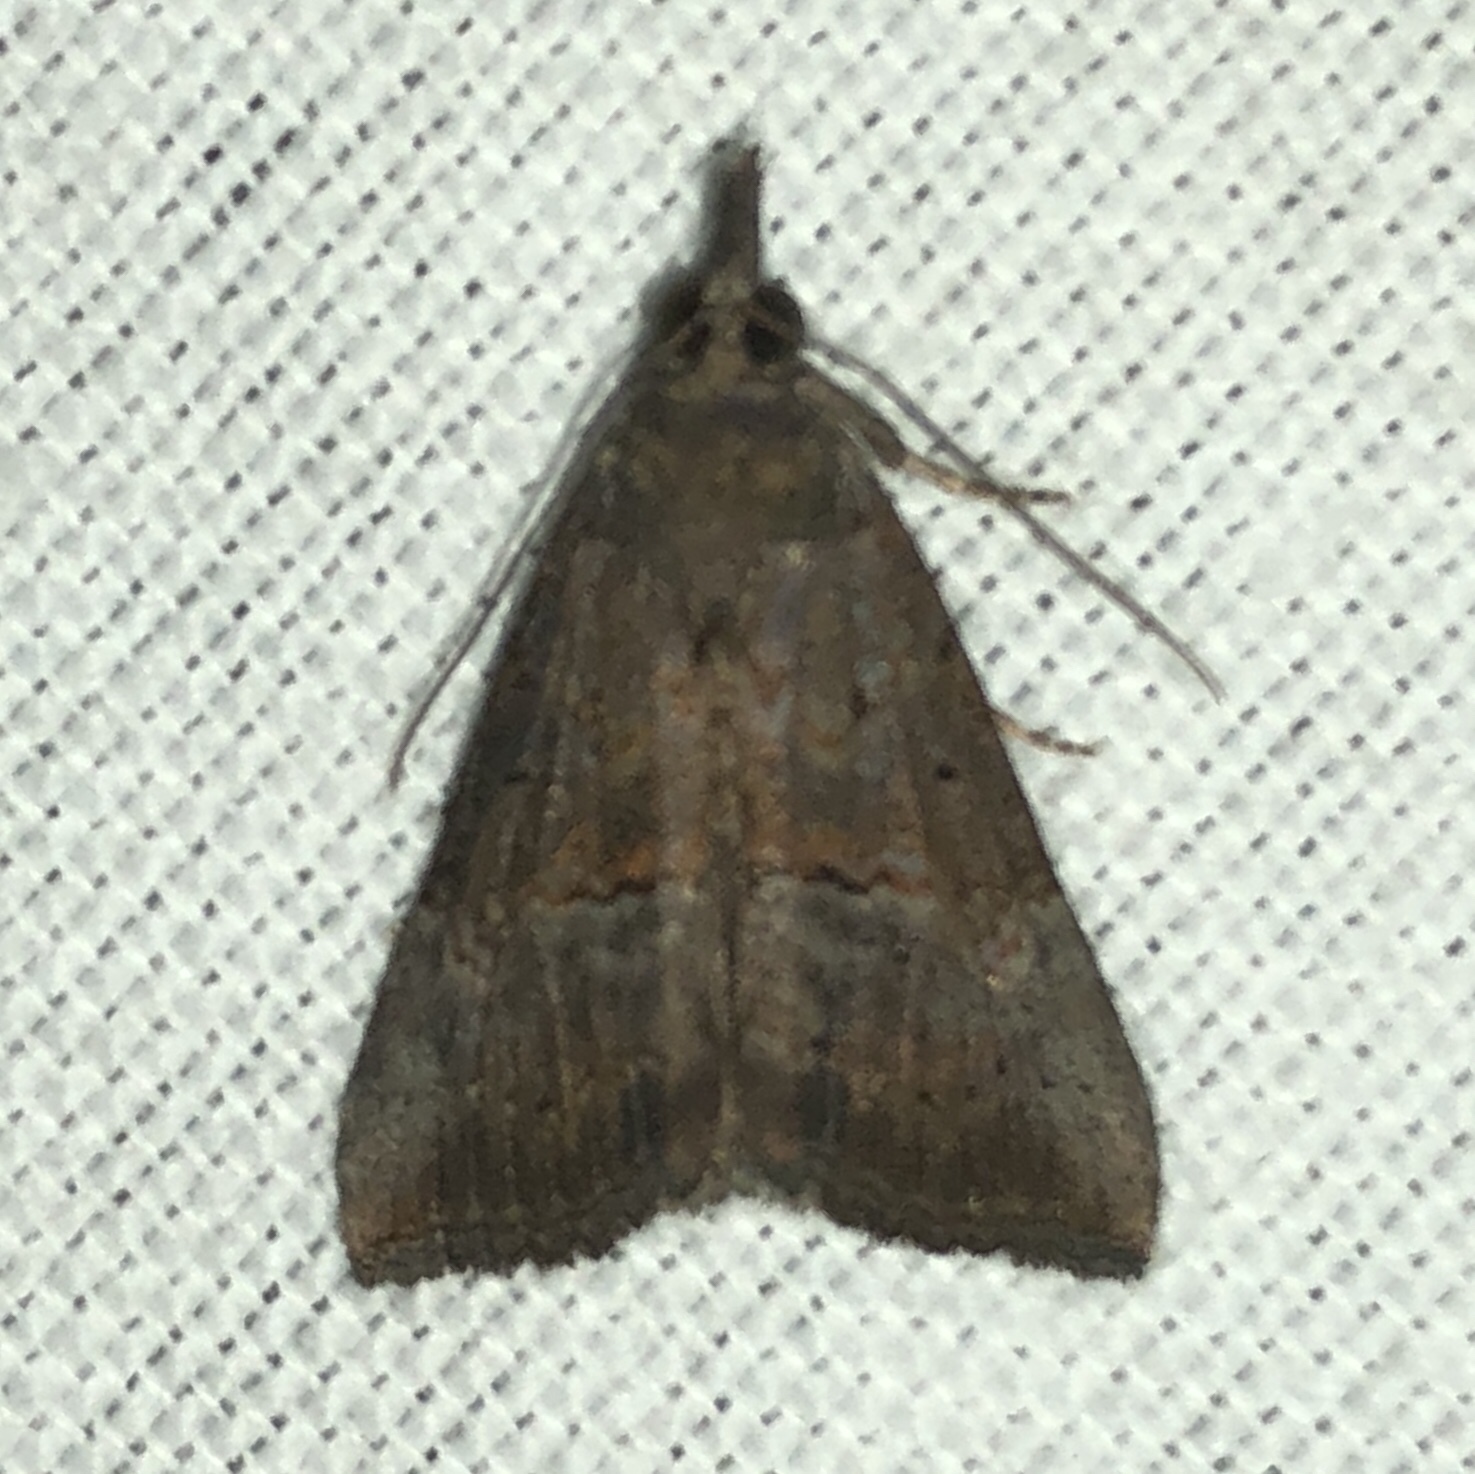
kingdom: Animalia
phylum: Arthropoda
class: Insecta
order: Lepidoptera
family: Erebidae
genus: Hypena
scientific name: Hypena scabra
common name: Green cloverworm
